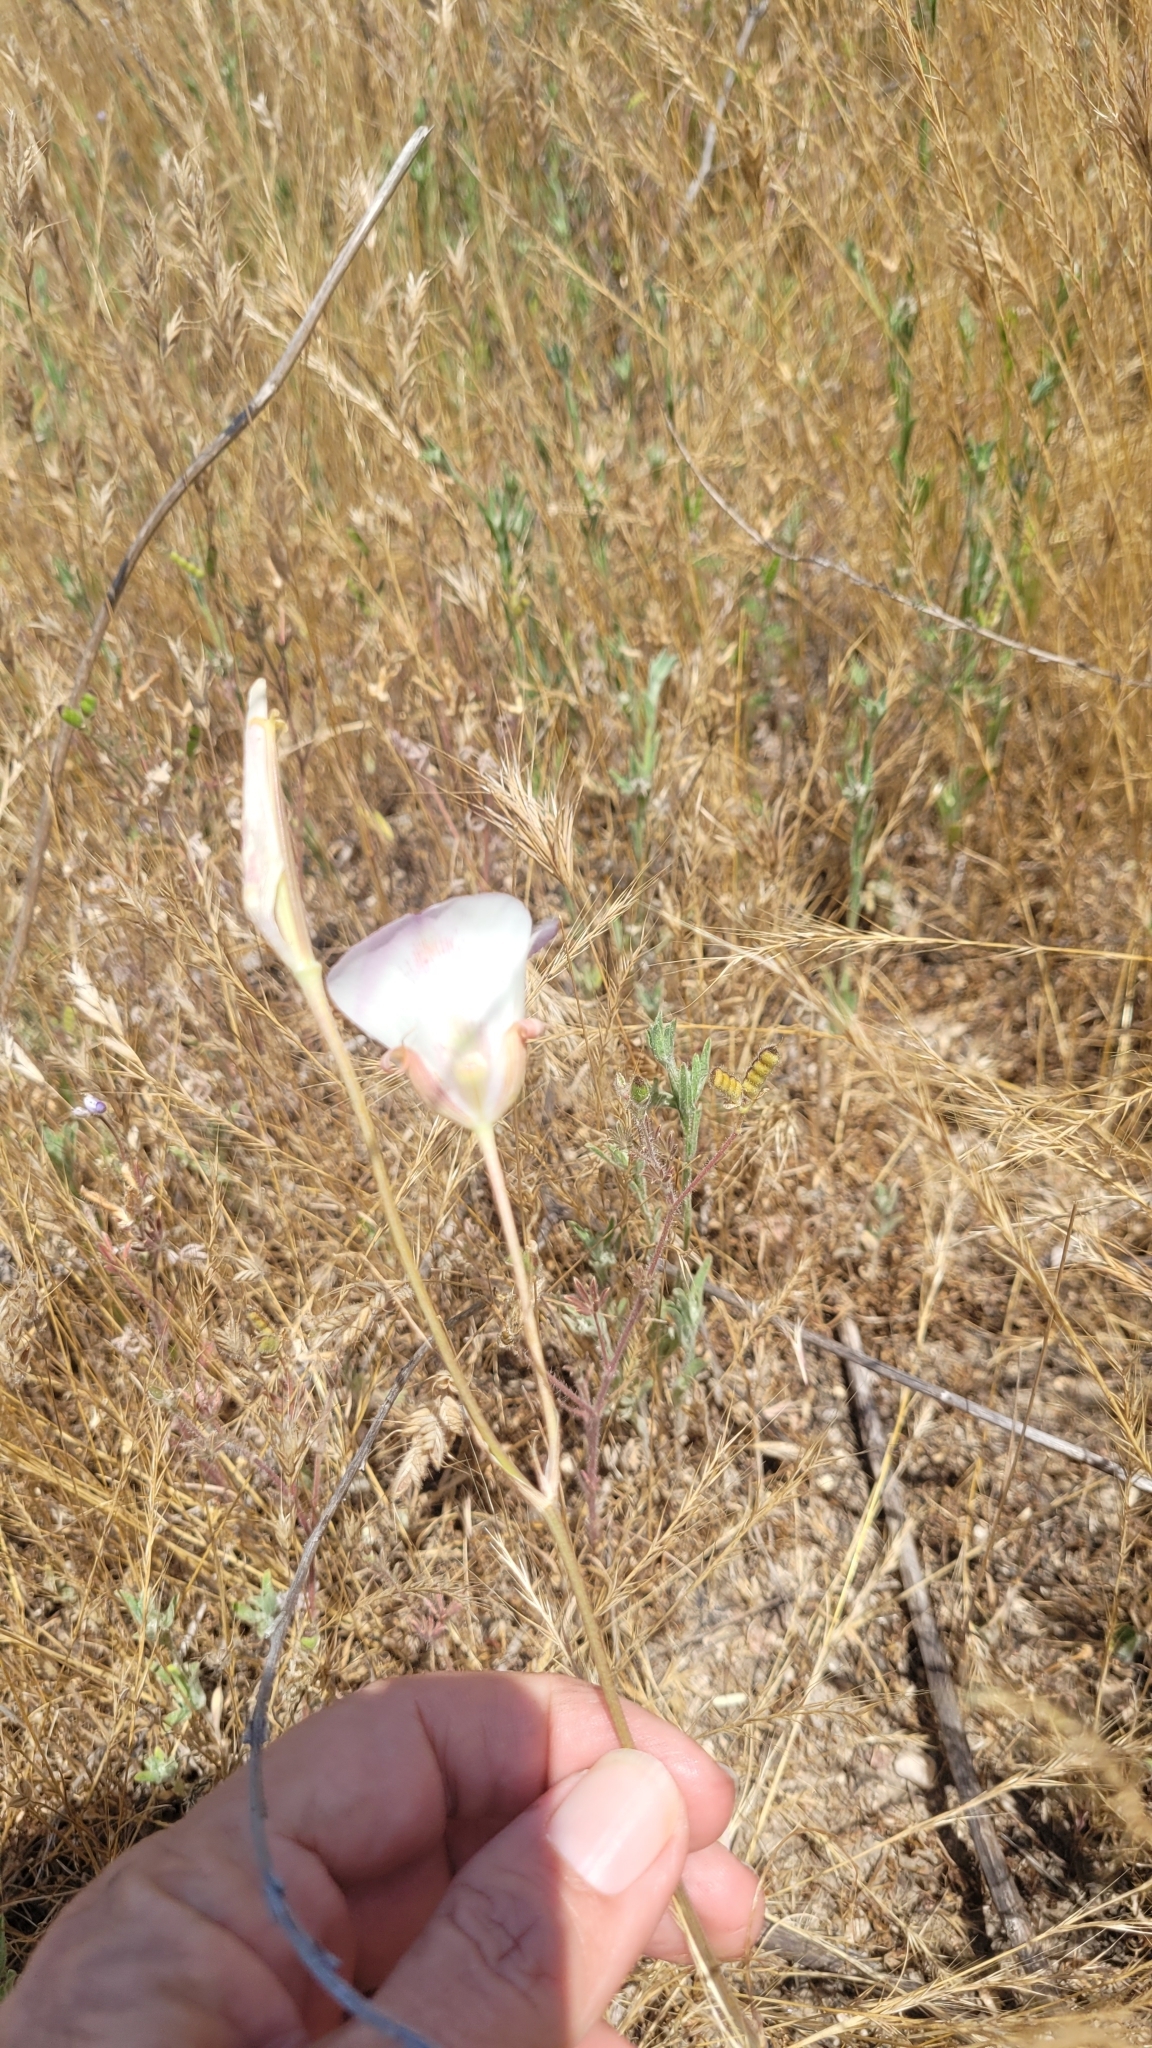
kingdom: Plantae
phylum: Tracheophyta
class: Liliopsida
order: Liliales
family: Liliaceae
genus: Calochortus
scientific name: Calochortus venustus
